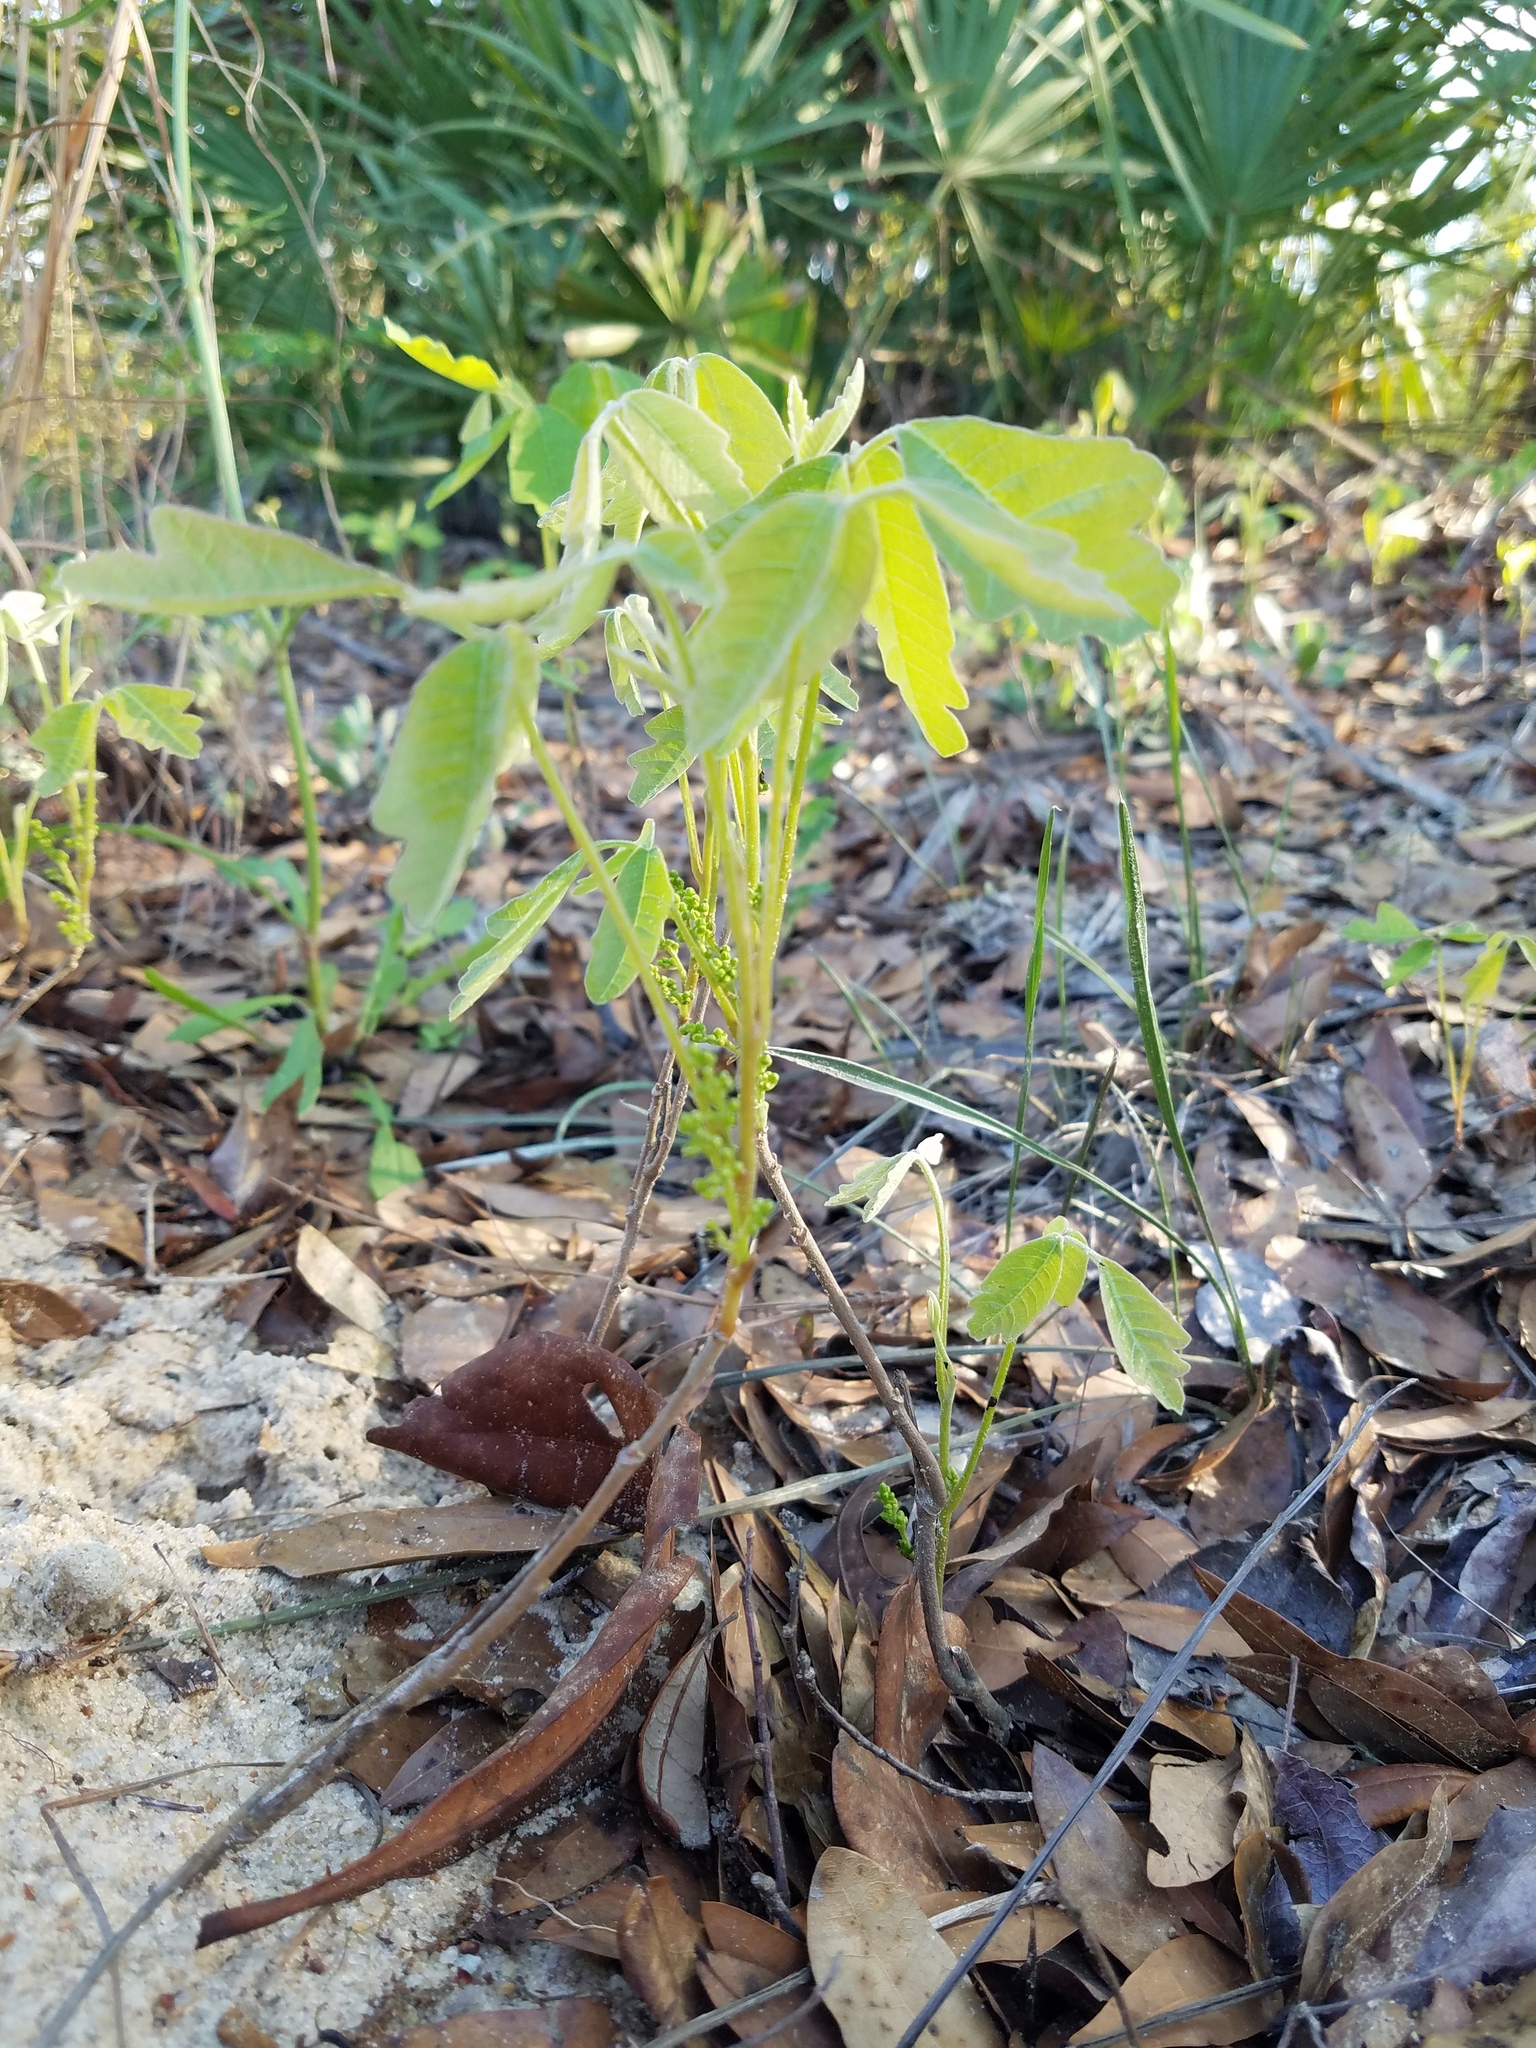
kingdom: Plantae
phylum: Tracheophyta
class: Magnoliopsida
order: Sapindales
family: Anacardiaceae
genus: Toxicodendron
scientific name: Toxicodendron pubescens
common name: Eastern poison-oak
